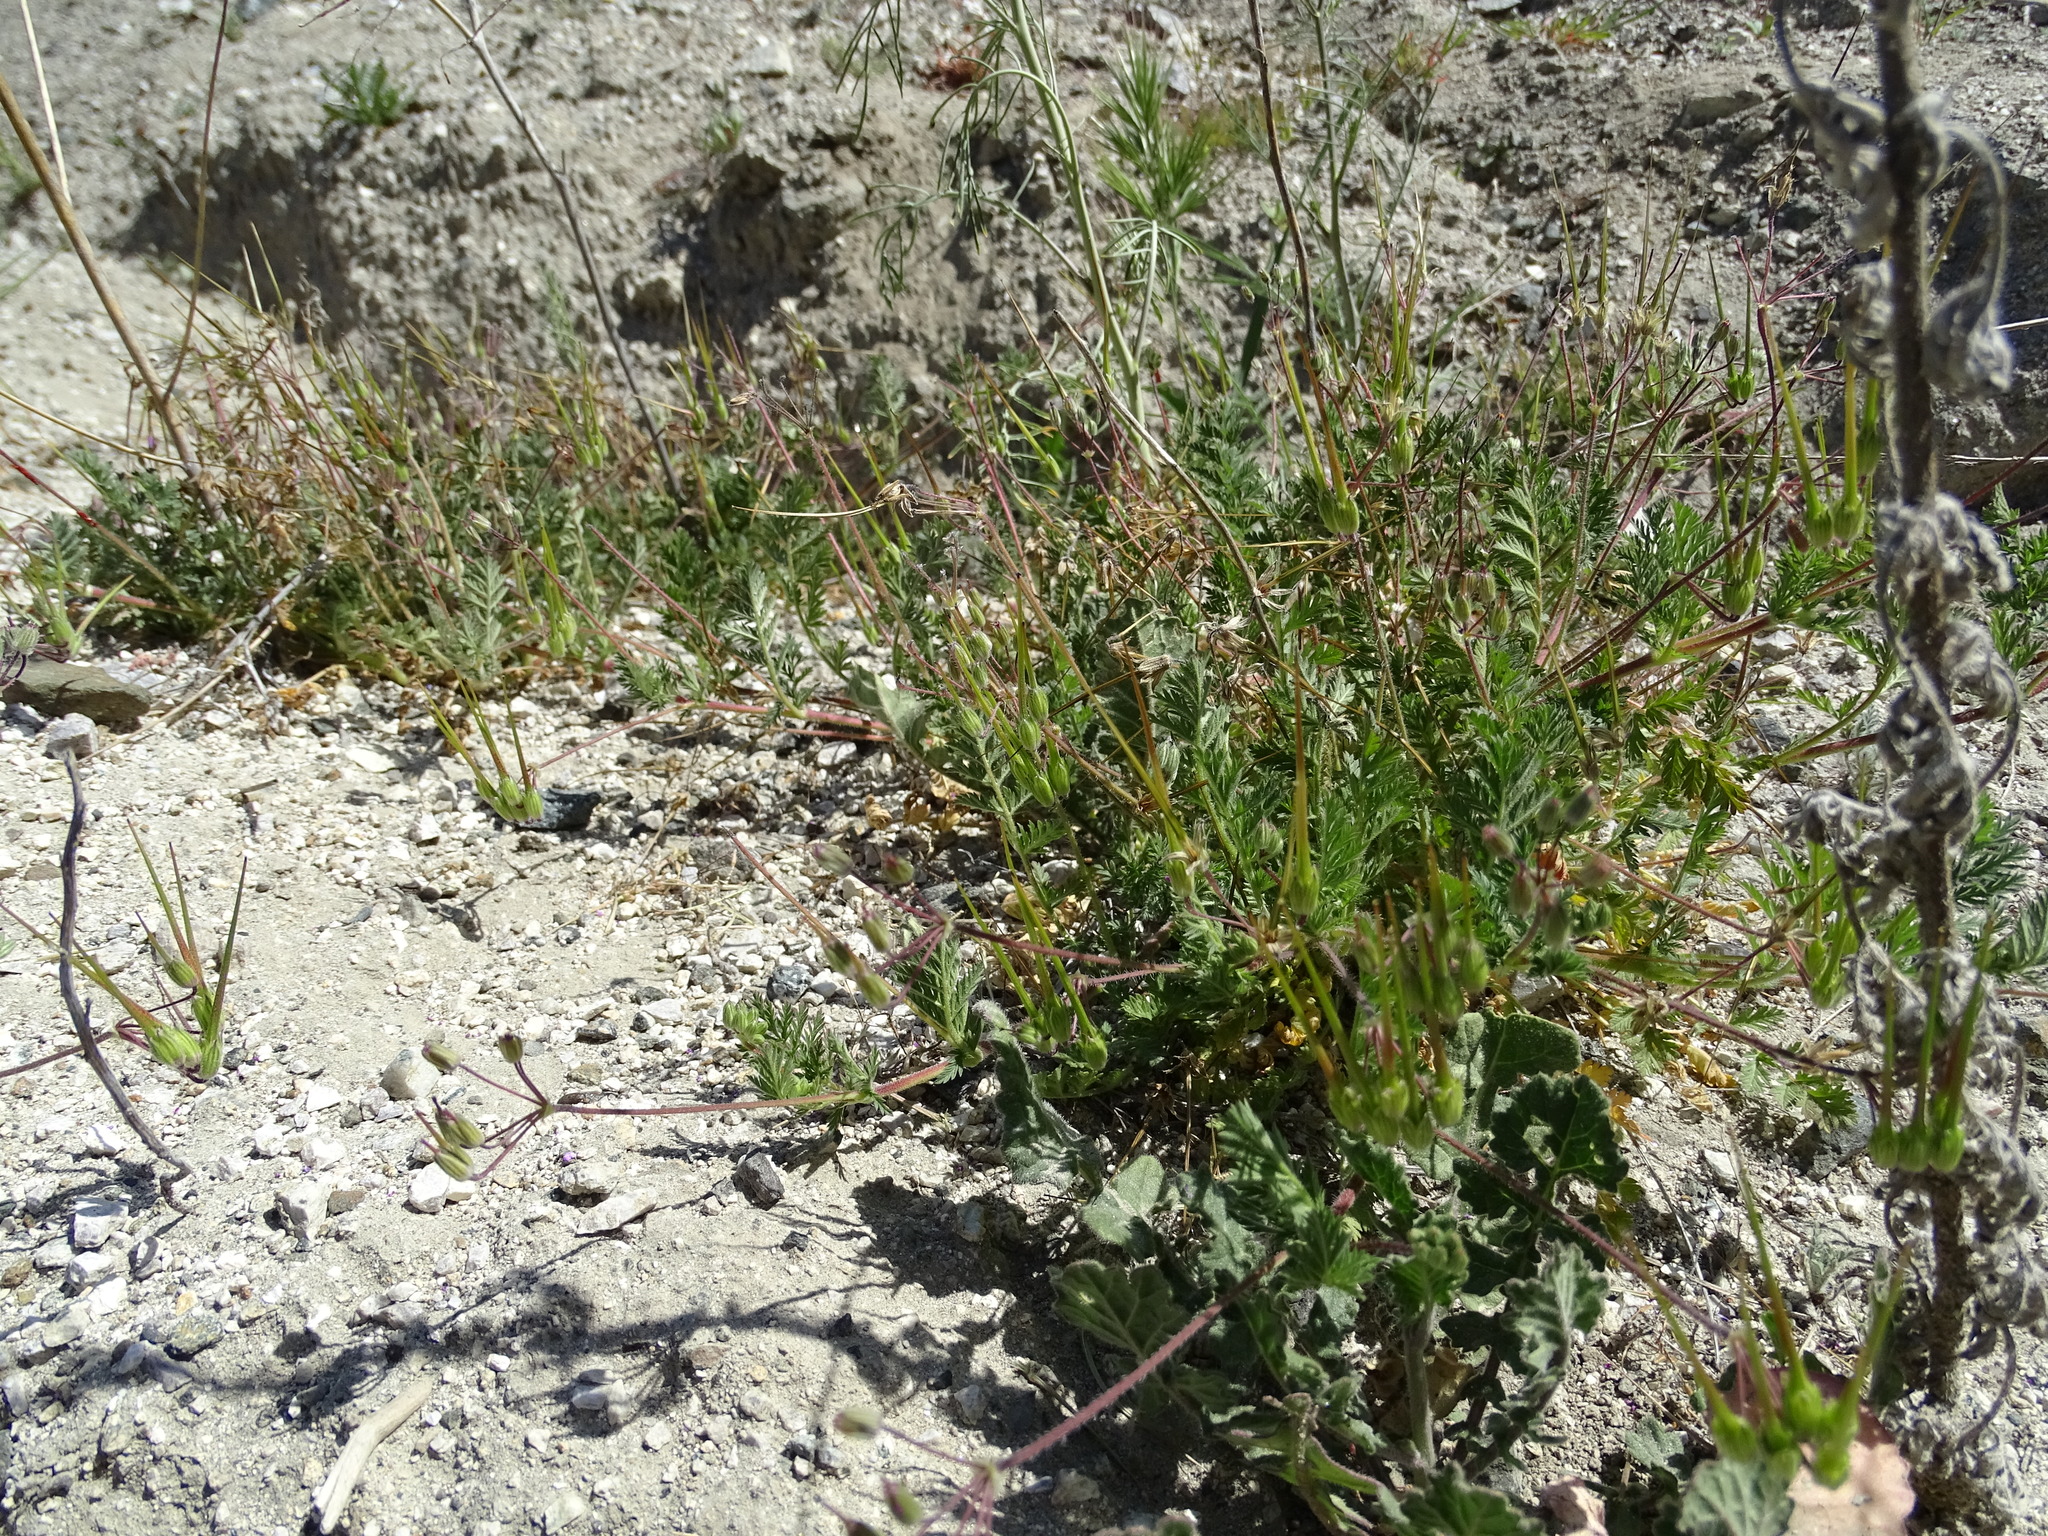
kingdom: Plantae
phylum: Tracheophyta
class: Magnoliopsida
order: Geraniales
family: Geraniaceae
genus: Erodium
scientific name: Erodium cicutarium
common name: Common stork's-bill
